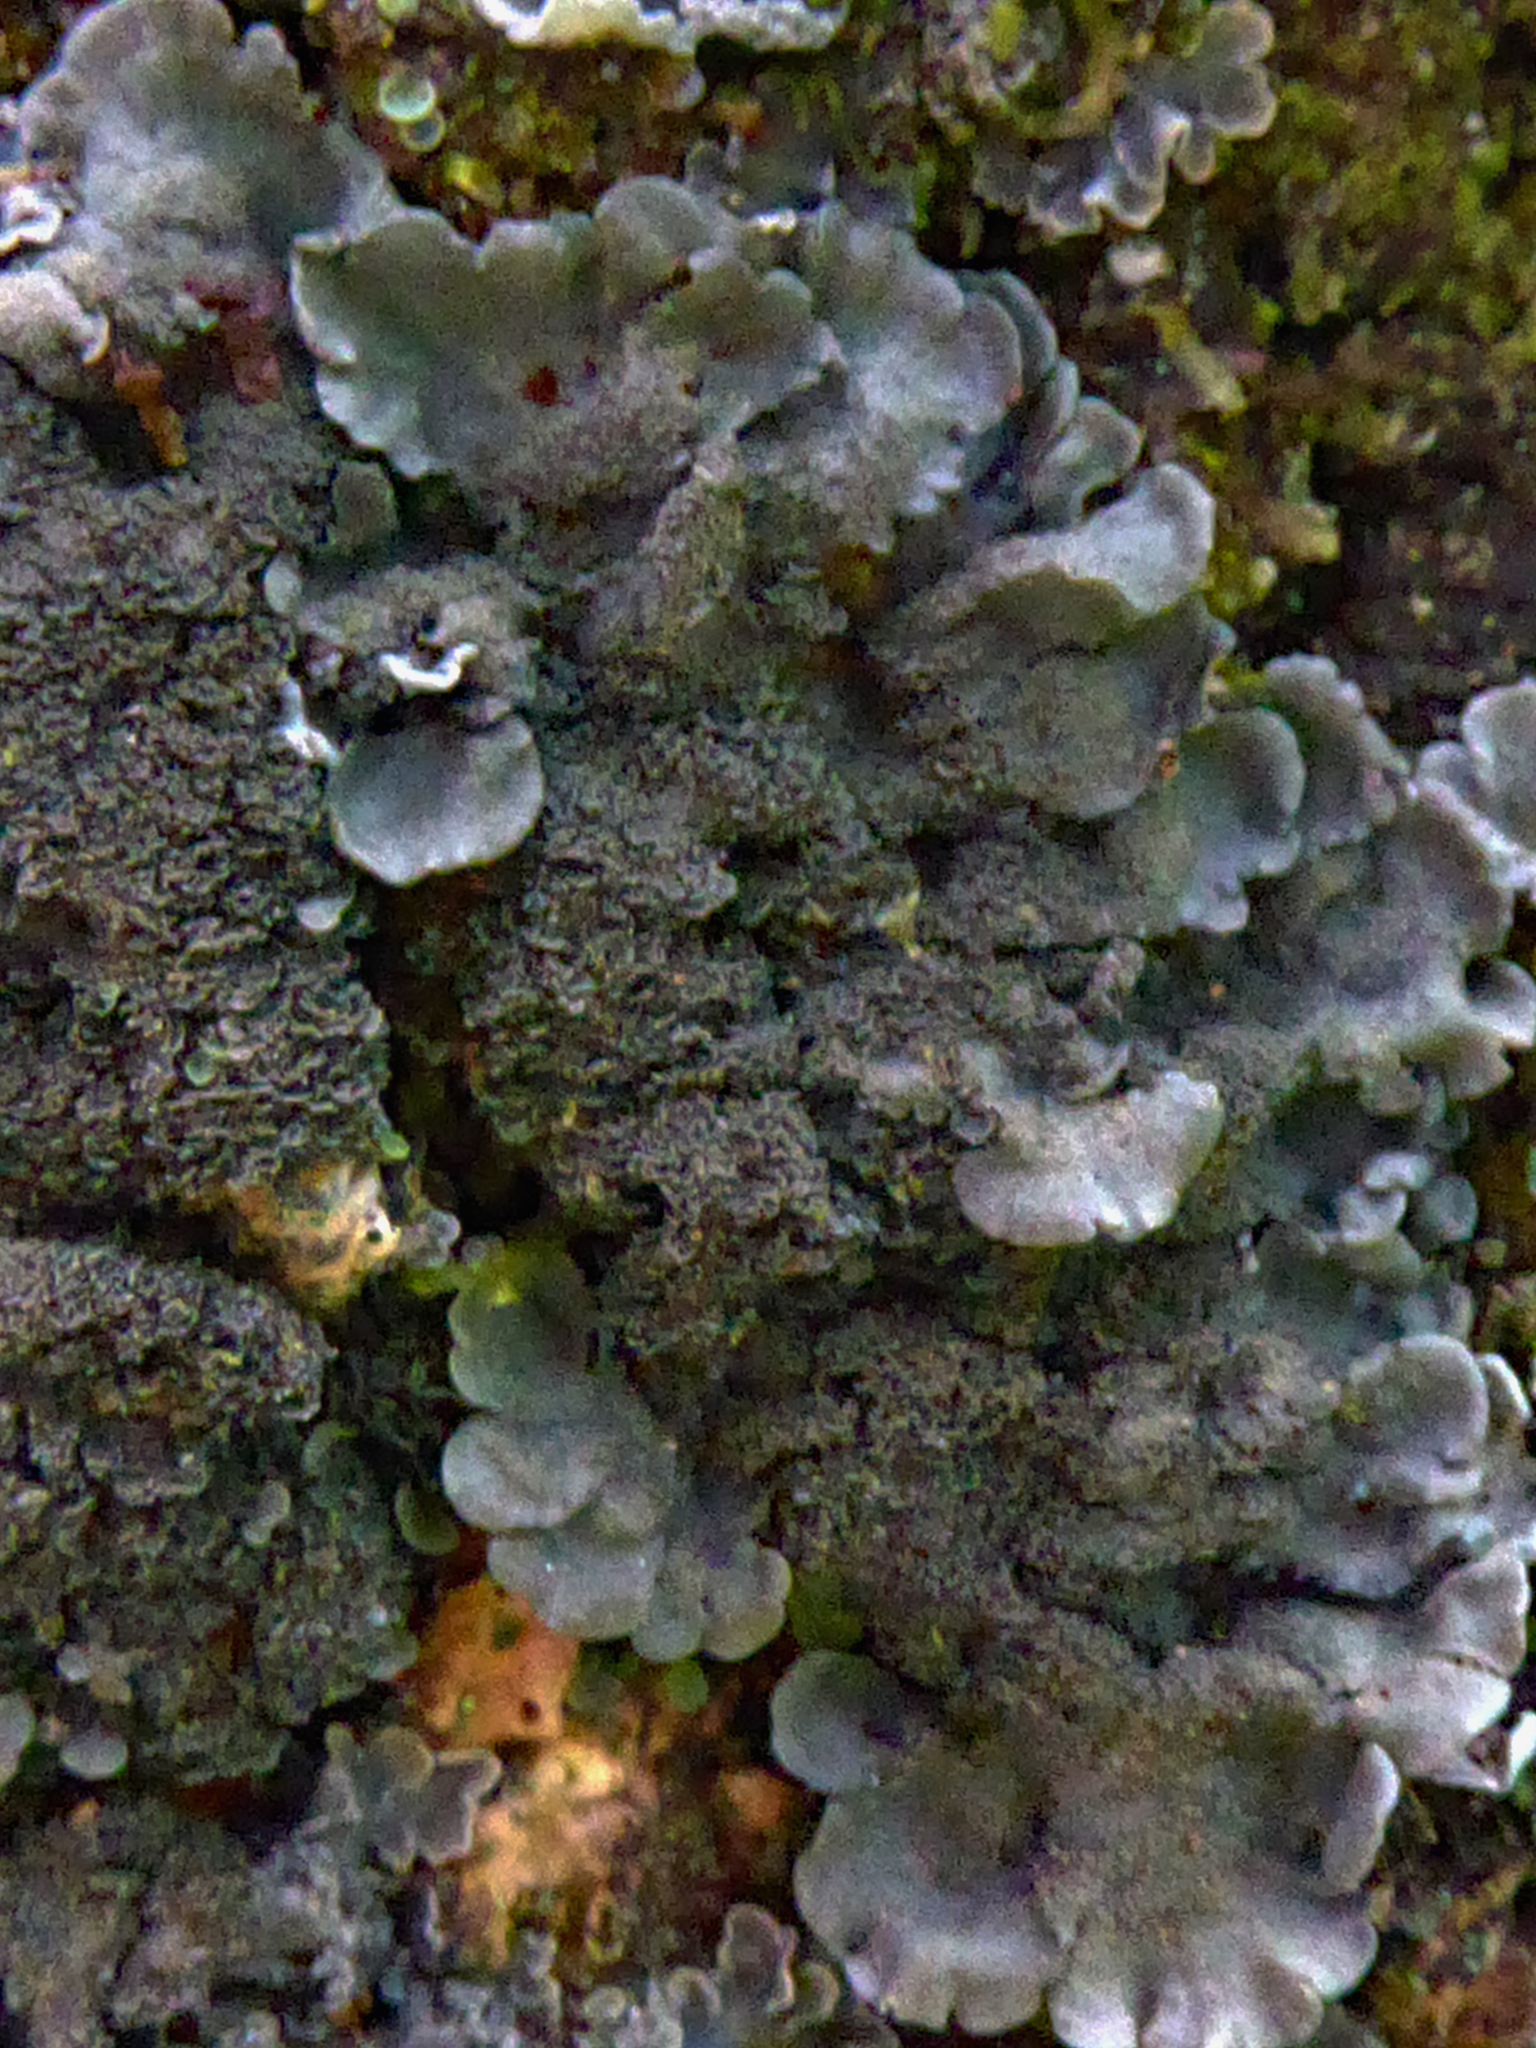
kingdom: Fungi
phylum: Ascomycota
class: Lecanoromycetes
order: Peltigerales
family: Coccocarpiaceae
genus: Coccocarpia
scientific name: Coccocarpia pellita
